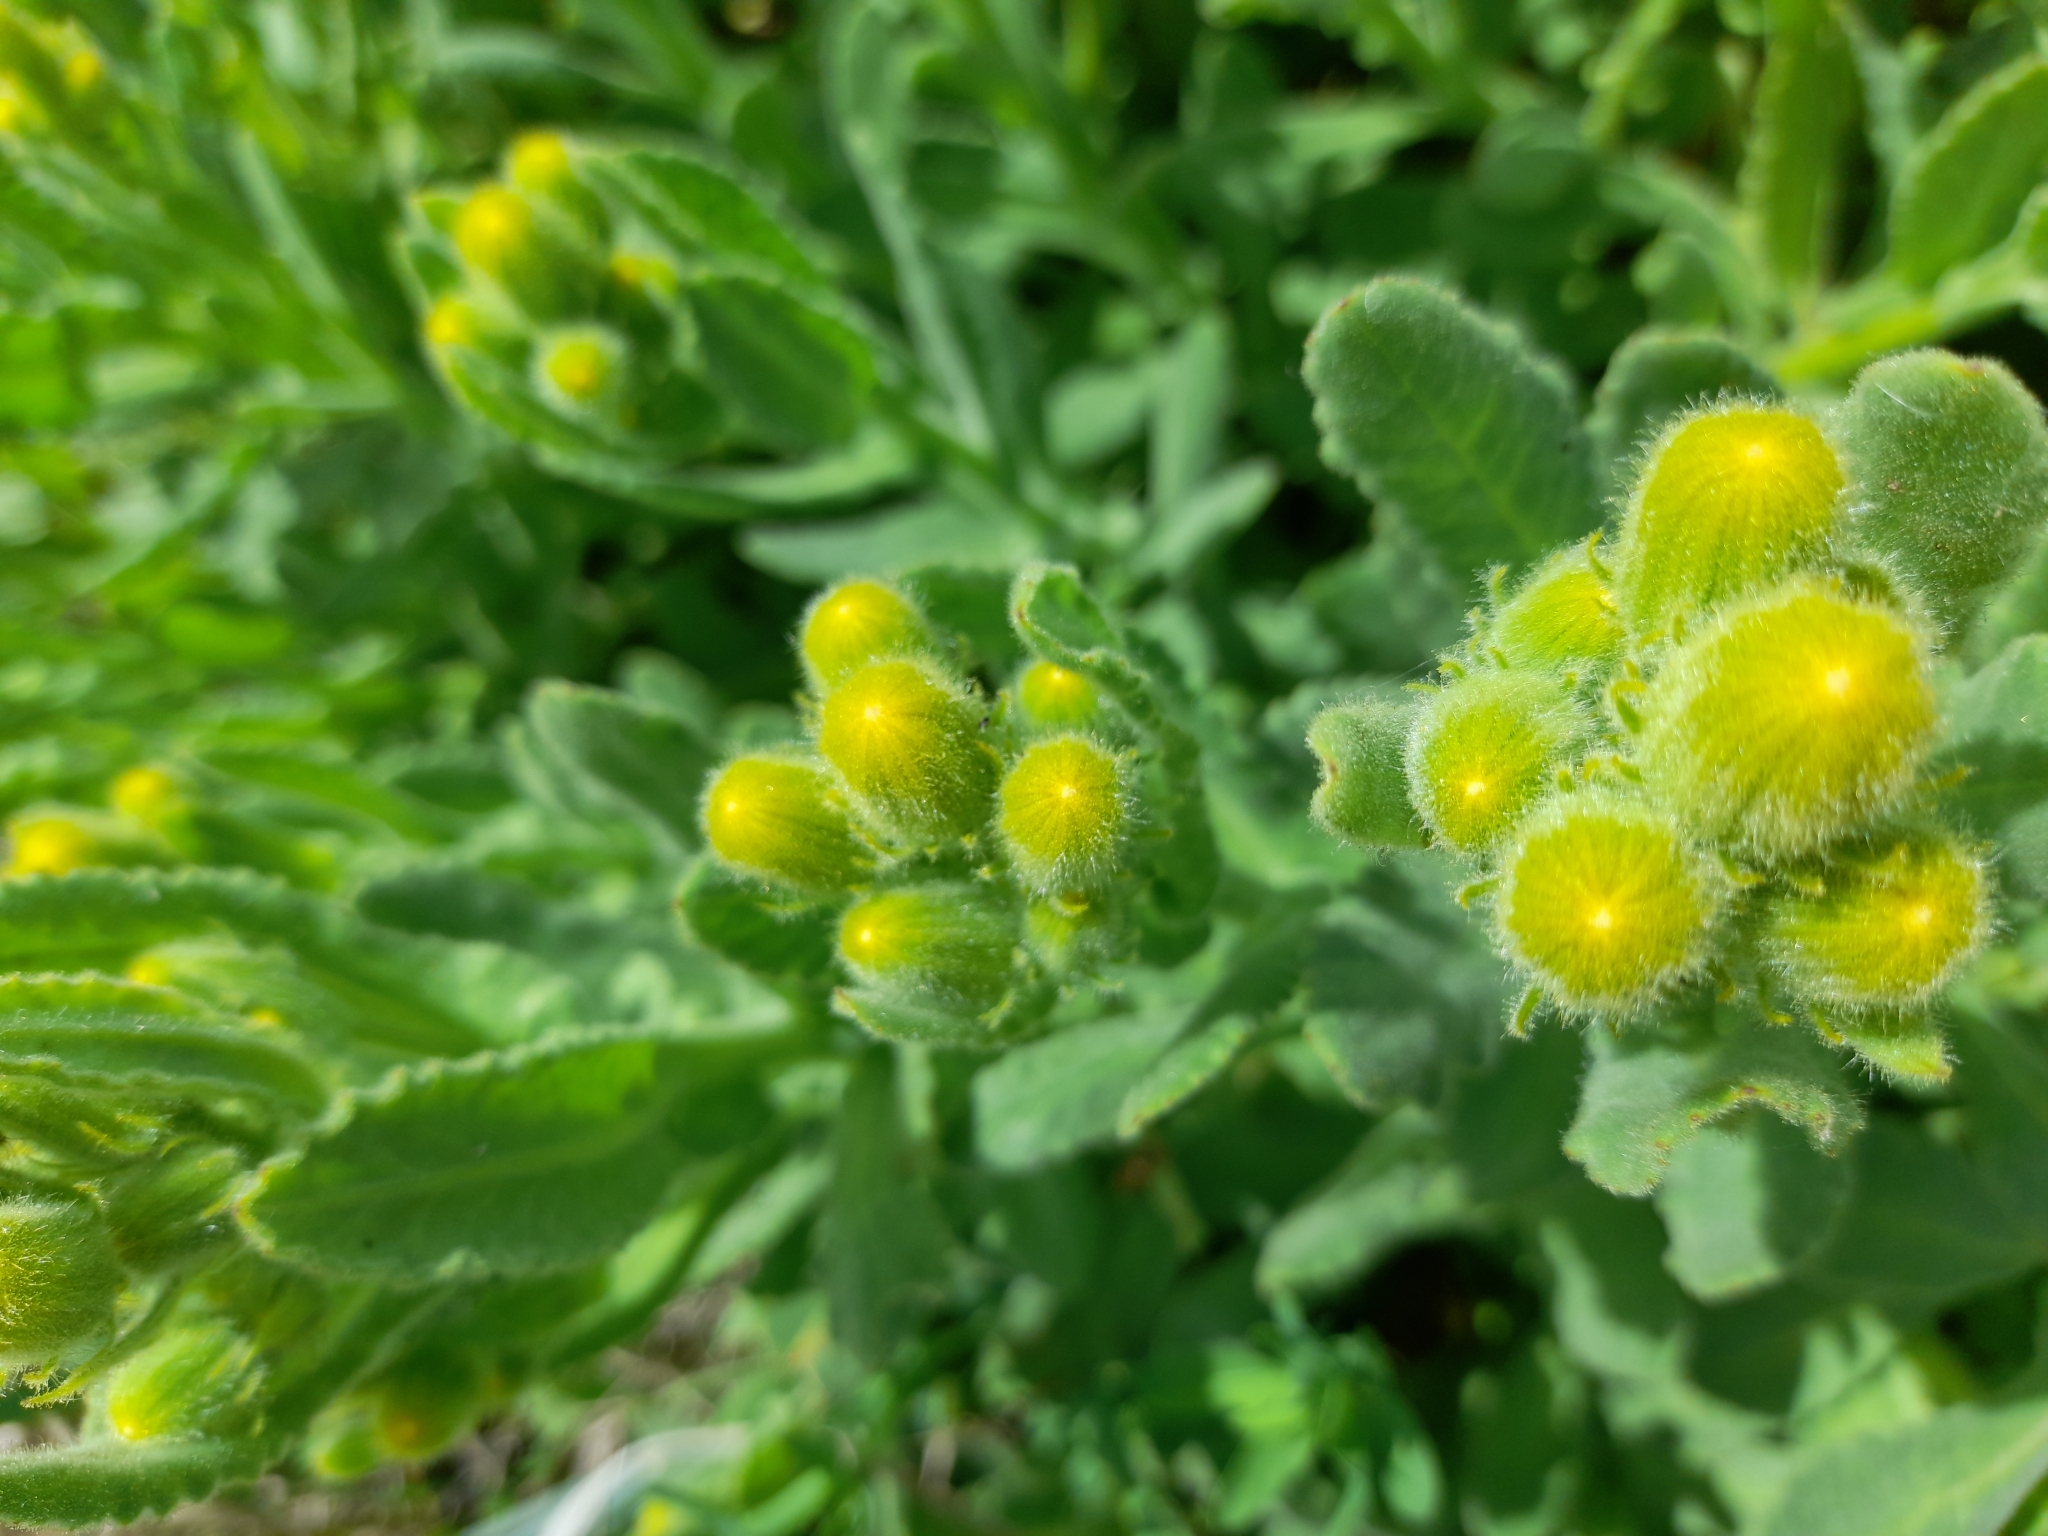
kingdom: Plantae
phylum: Tracheophyta
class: Magnoliopsida
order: Asterales
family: Asteraceae
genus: Senecio
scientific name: Senecio selloi
